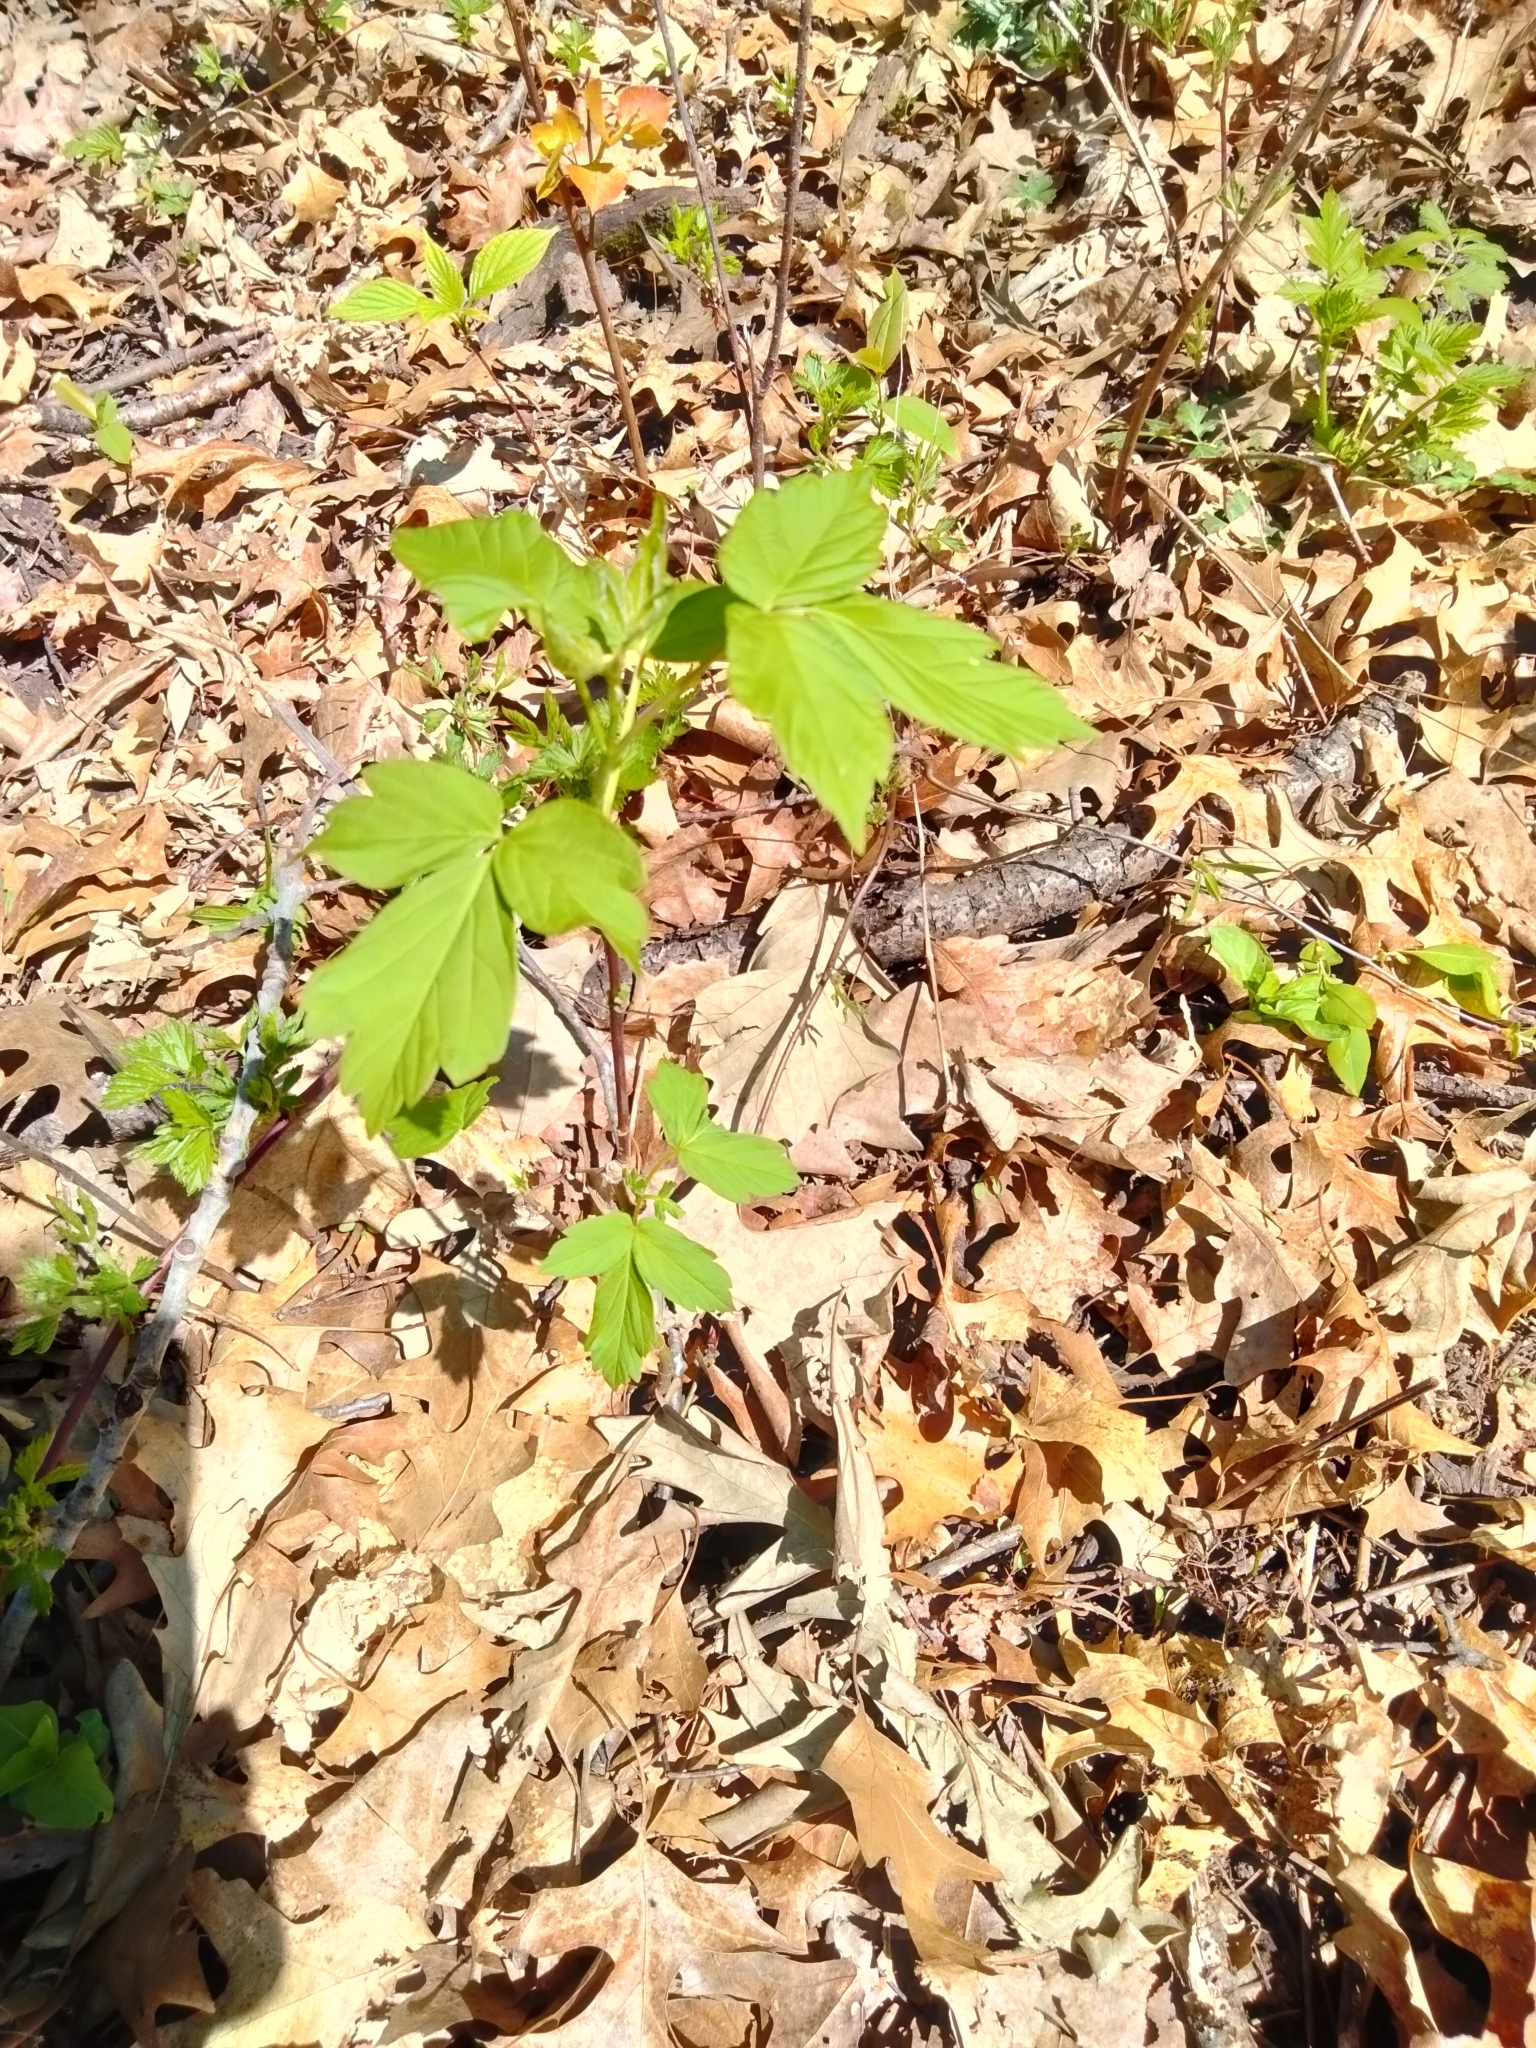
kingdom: Plantae
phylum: Tracheophyta
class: Magnoliopsida
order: Sapindales
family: Sapindaceae
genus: Acer
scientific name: Acer negundo
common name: Ashleaf maple
